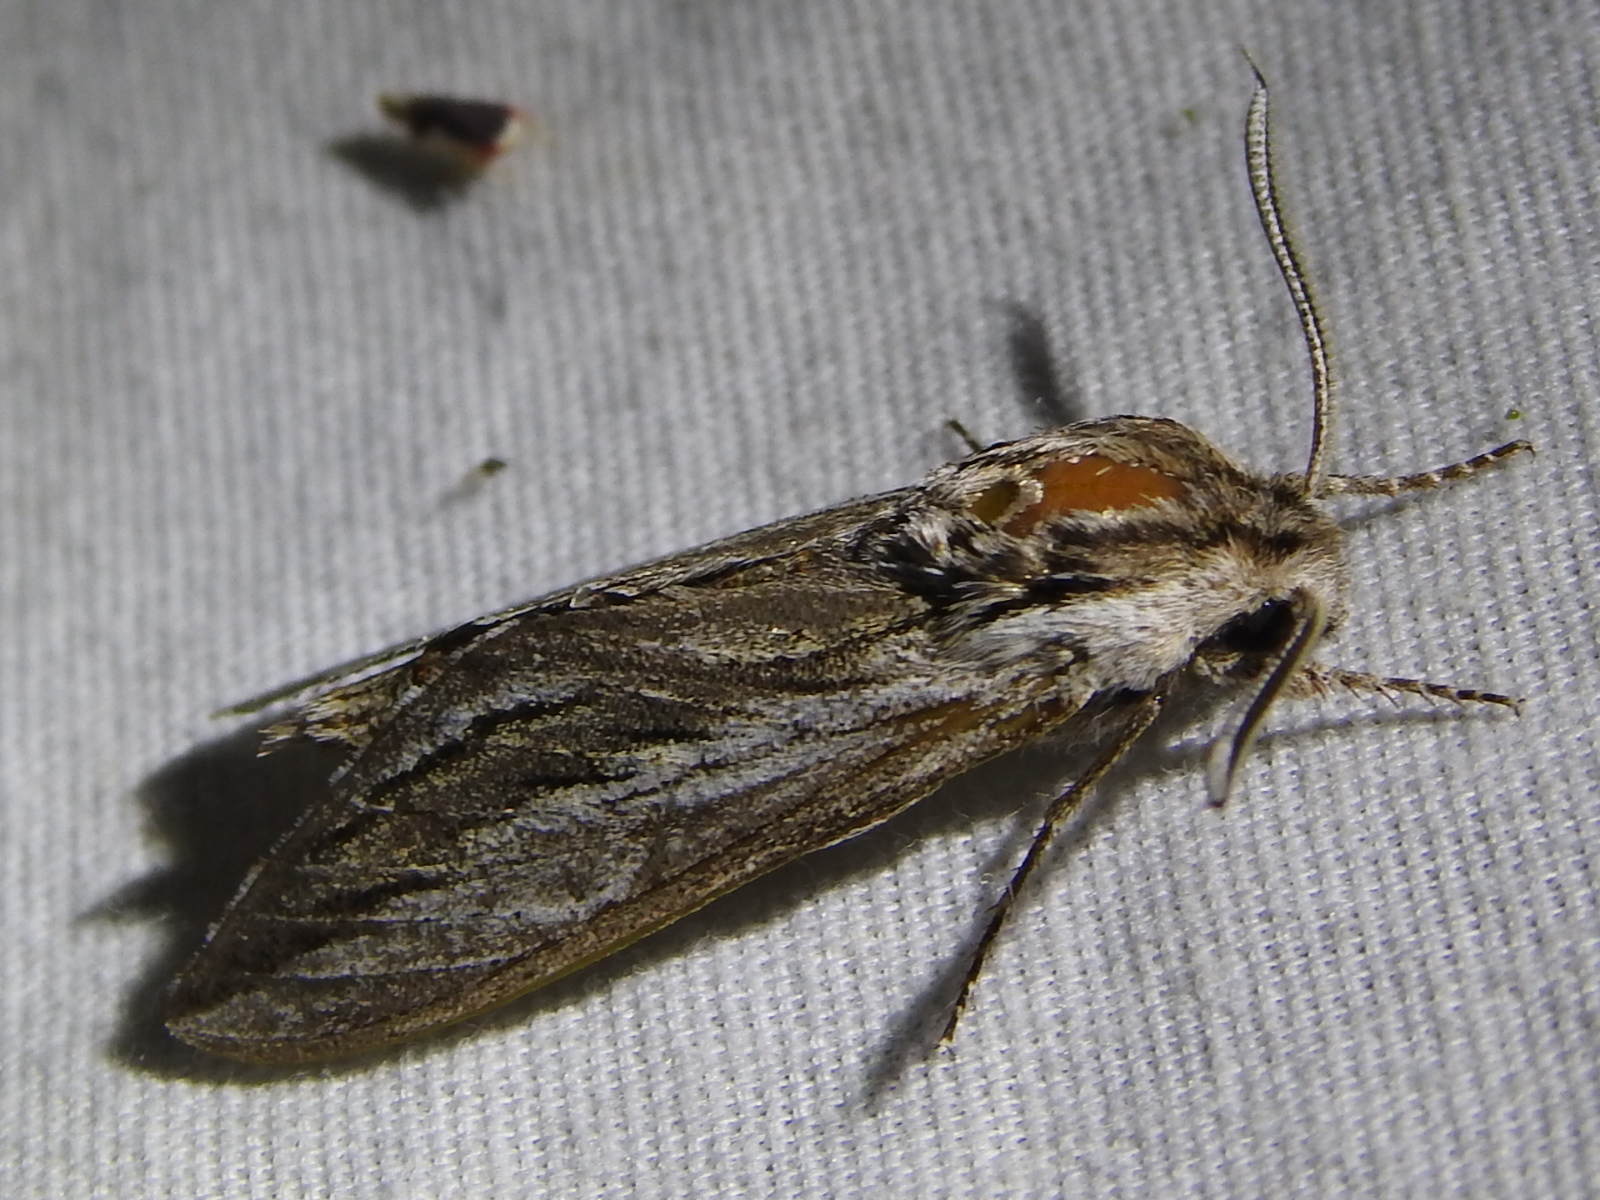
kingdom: Animalia
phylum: Arthropoda
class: Insecta
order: Lepidoptera
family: Sphingidae
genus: Sphinx
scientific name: Sphinx vanbuskirki
